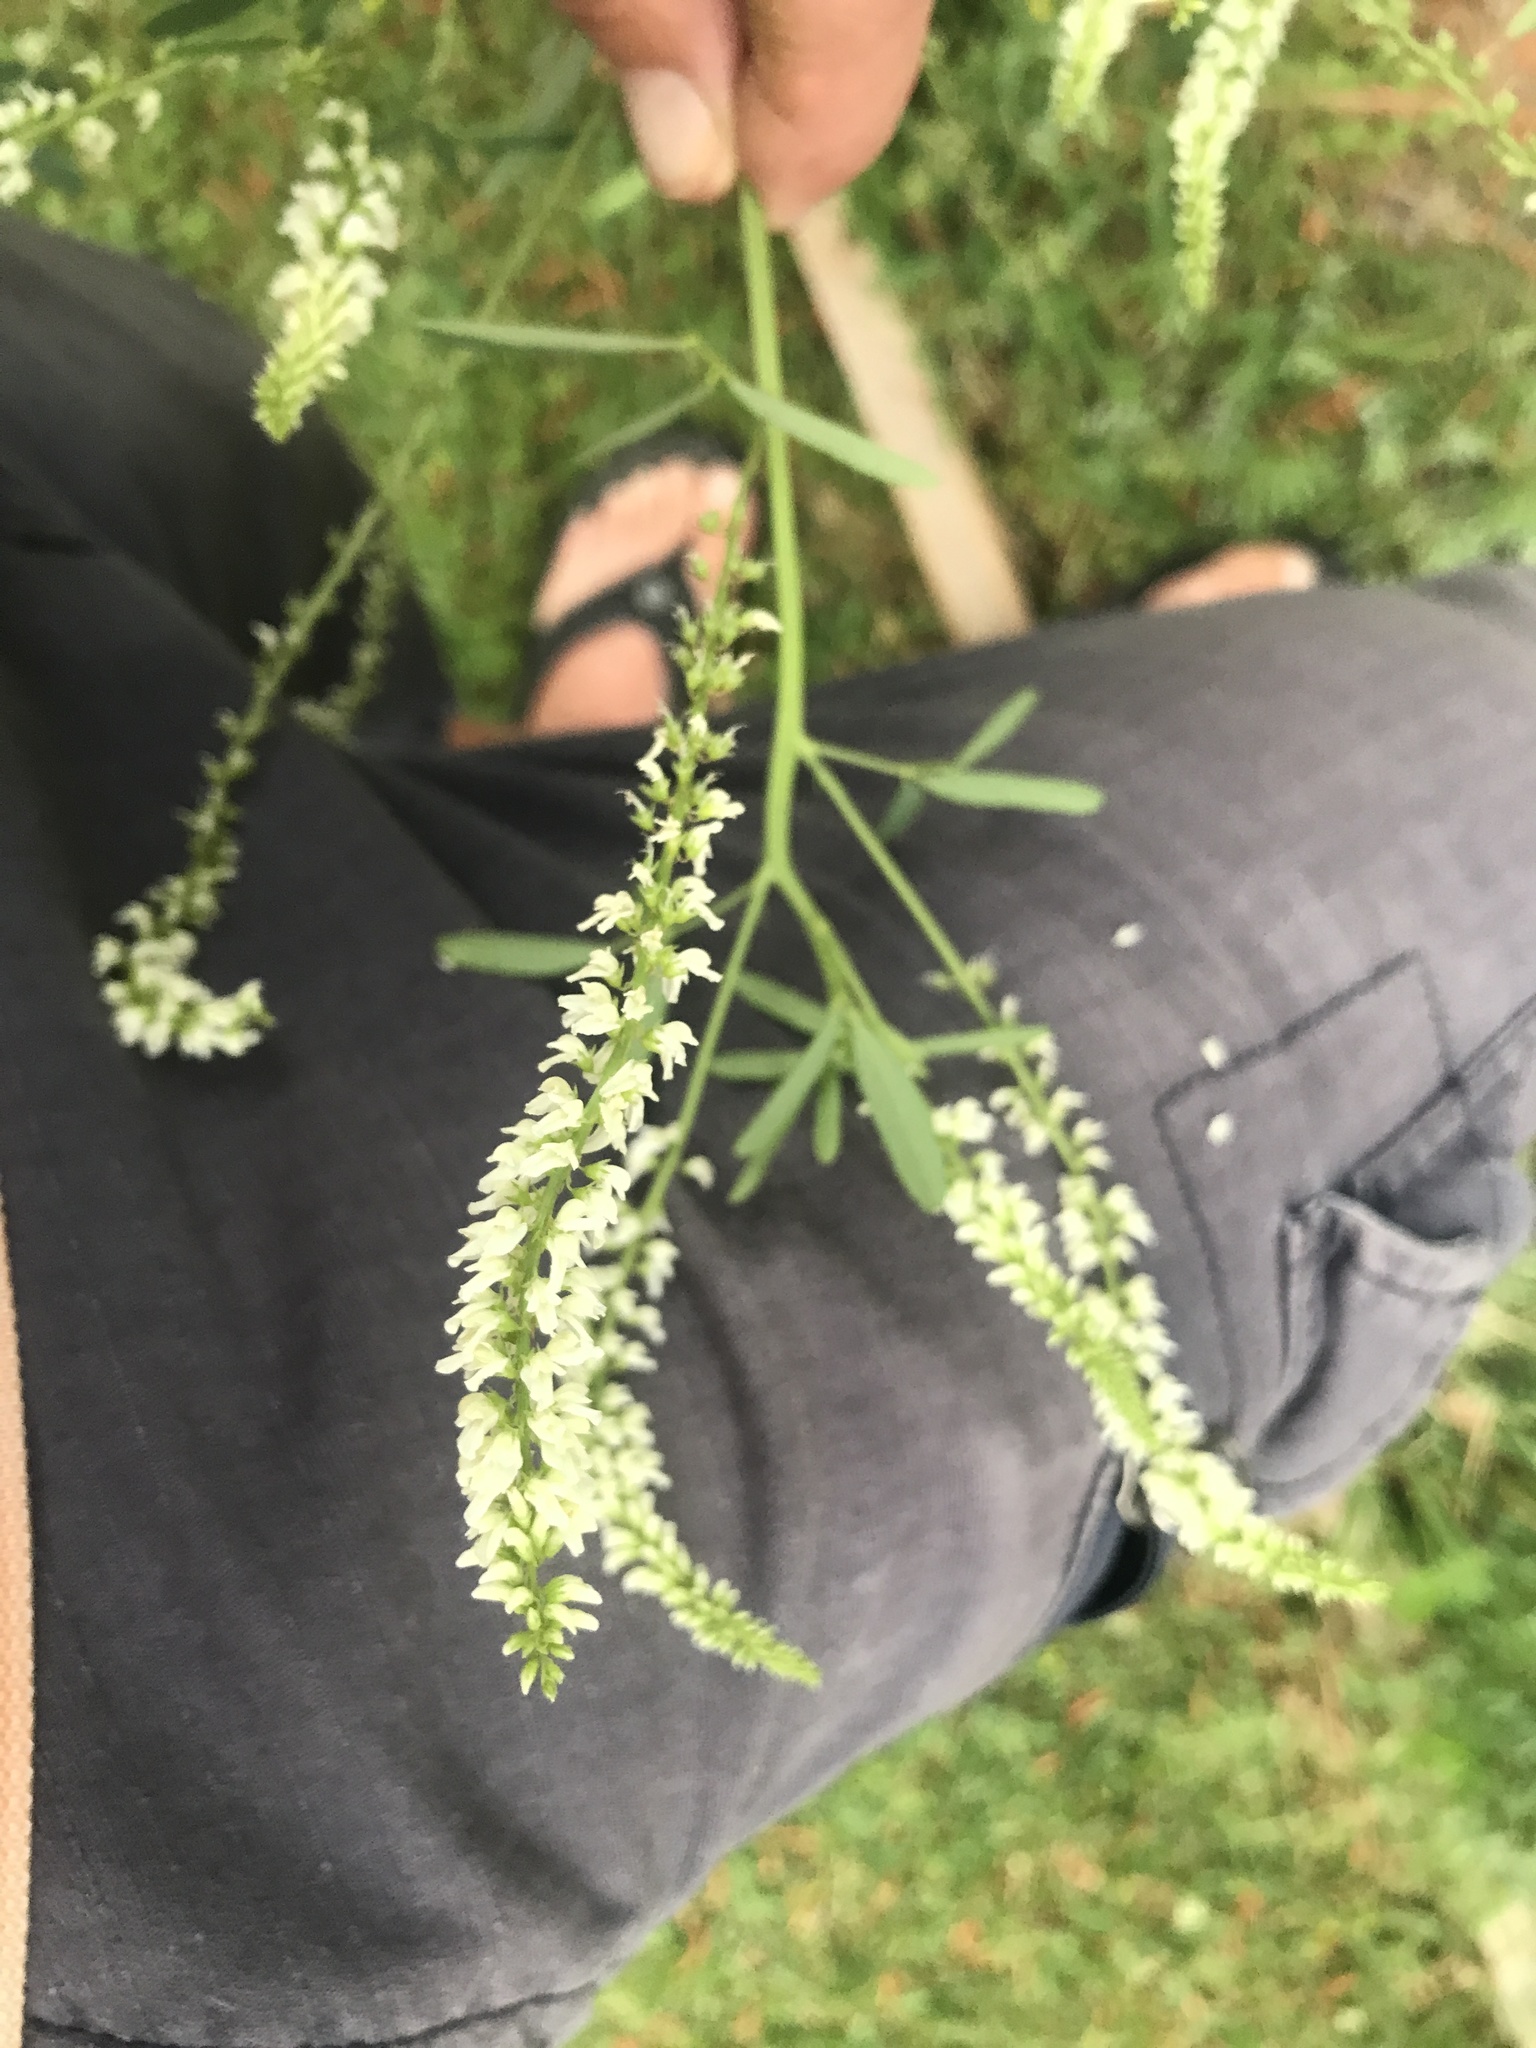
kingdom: Plantae
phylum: Tracheophyta
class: Magnoliopsida
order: Fabales
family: Fabaceae
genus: Melilotus
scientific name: Melilotus albus
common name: White melilot
